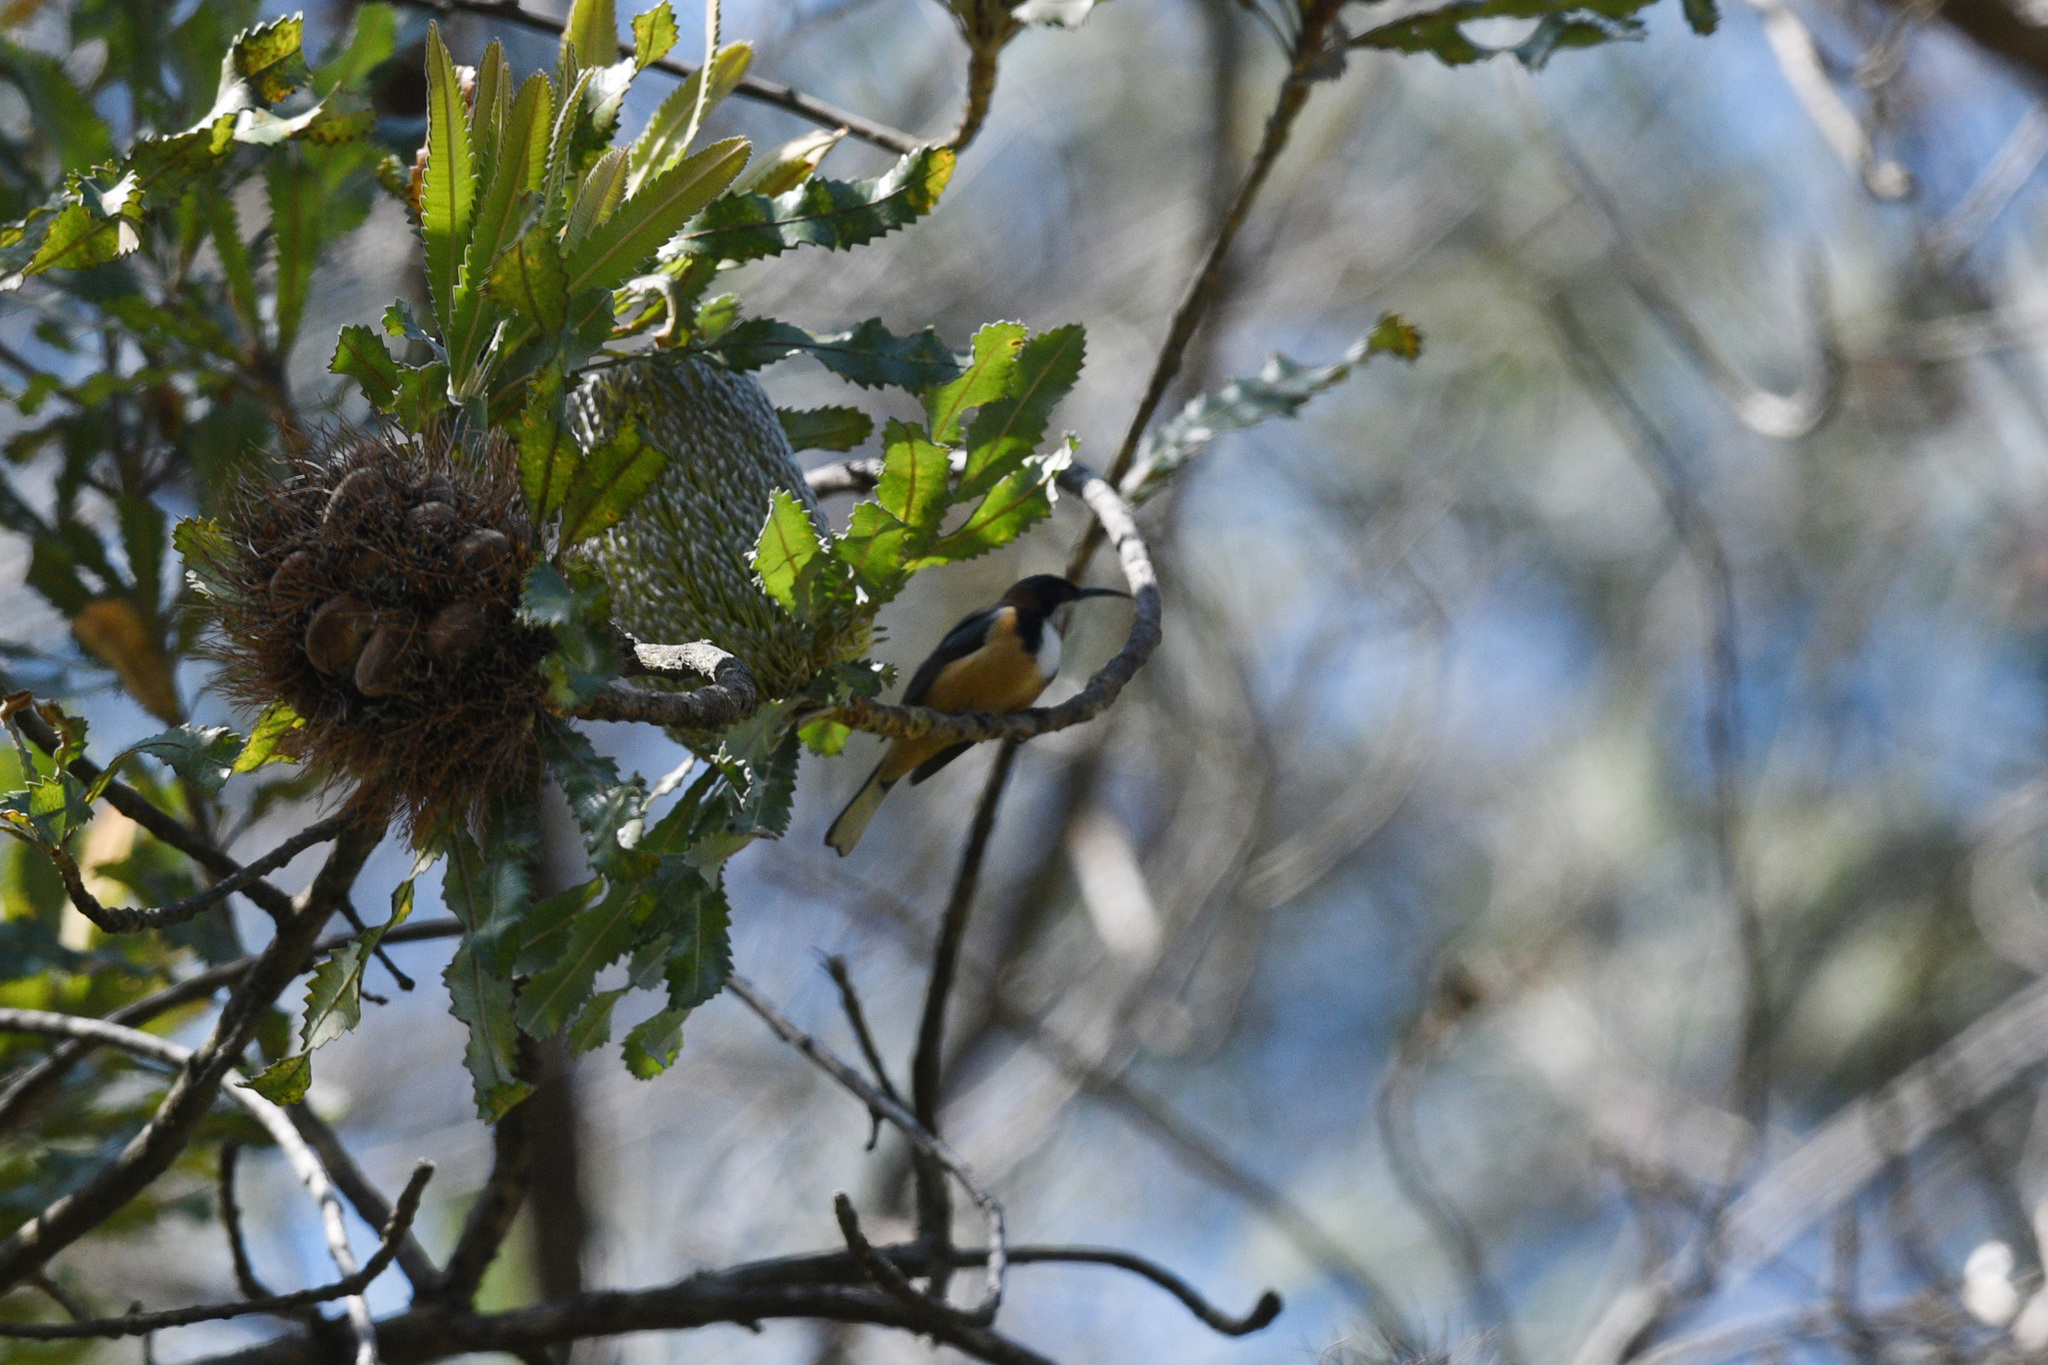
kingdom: Plantae
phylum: Tracheophyta
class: Magnoliopsida
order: Proteales
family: Proteaceae
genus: Banksia
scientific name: Banksia serrata
